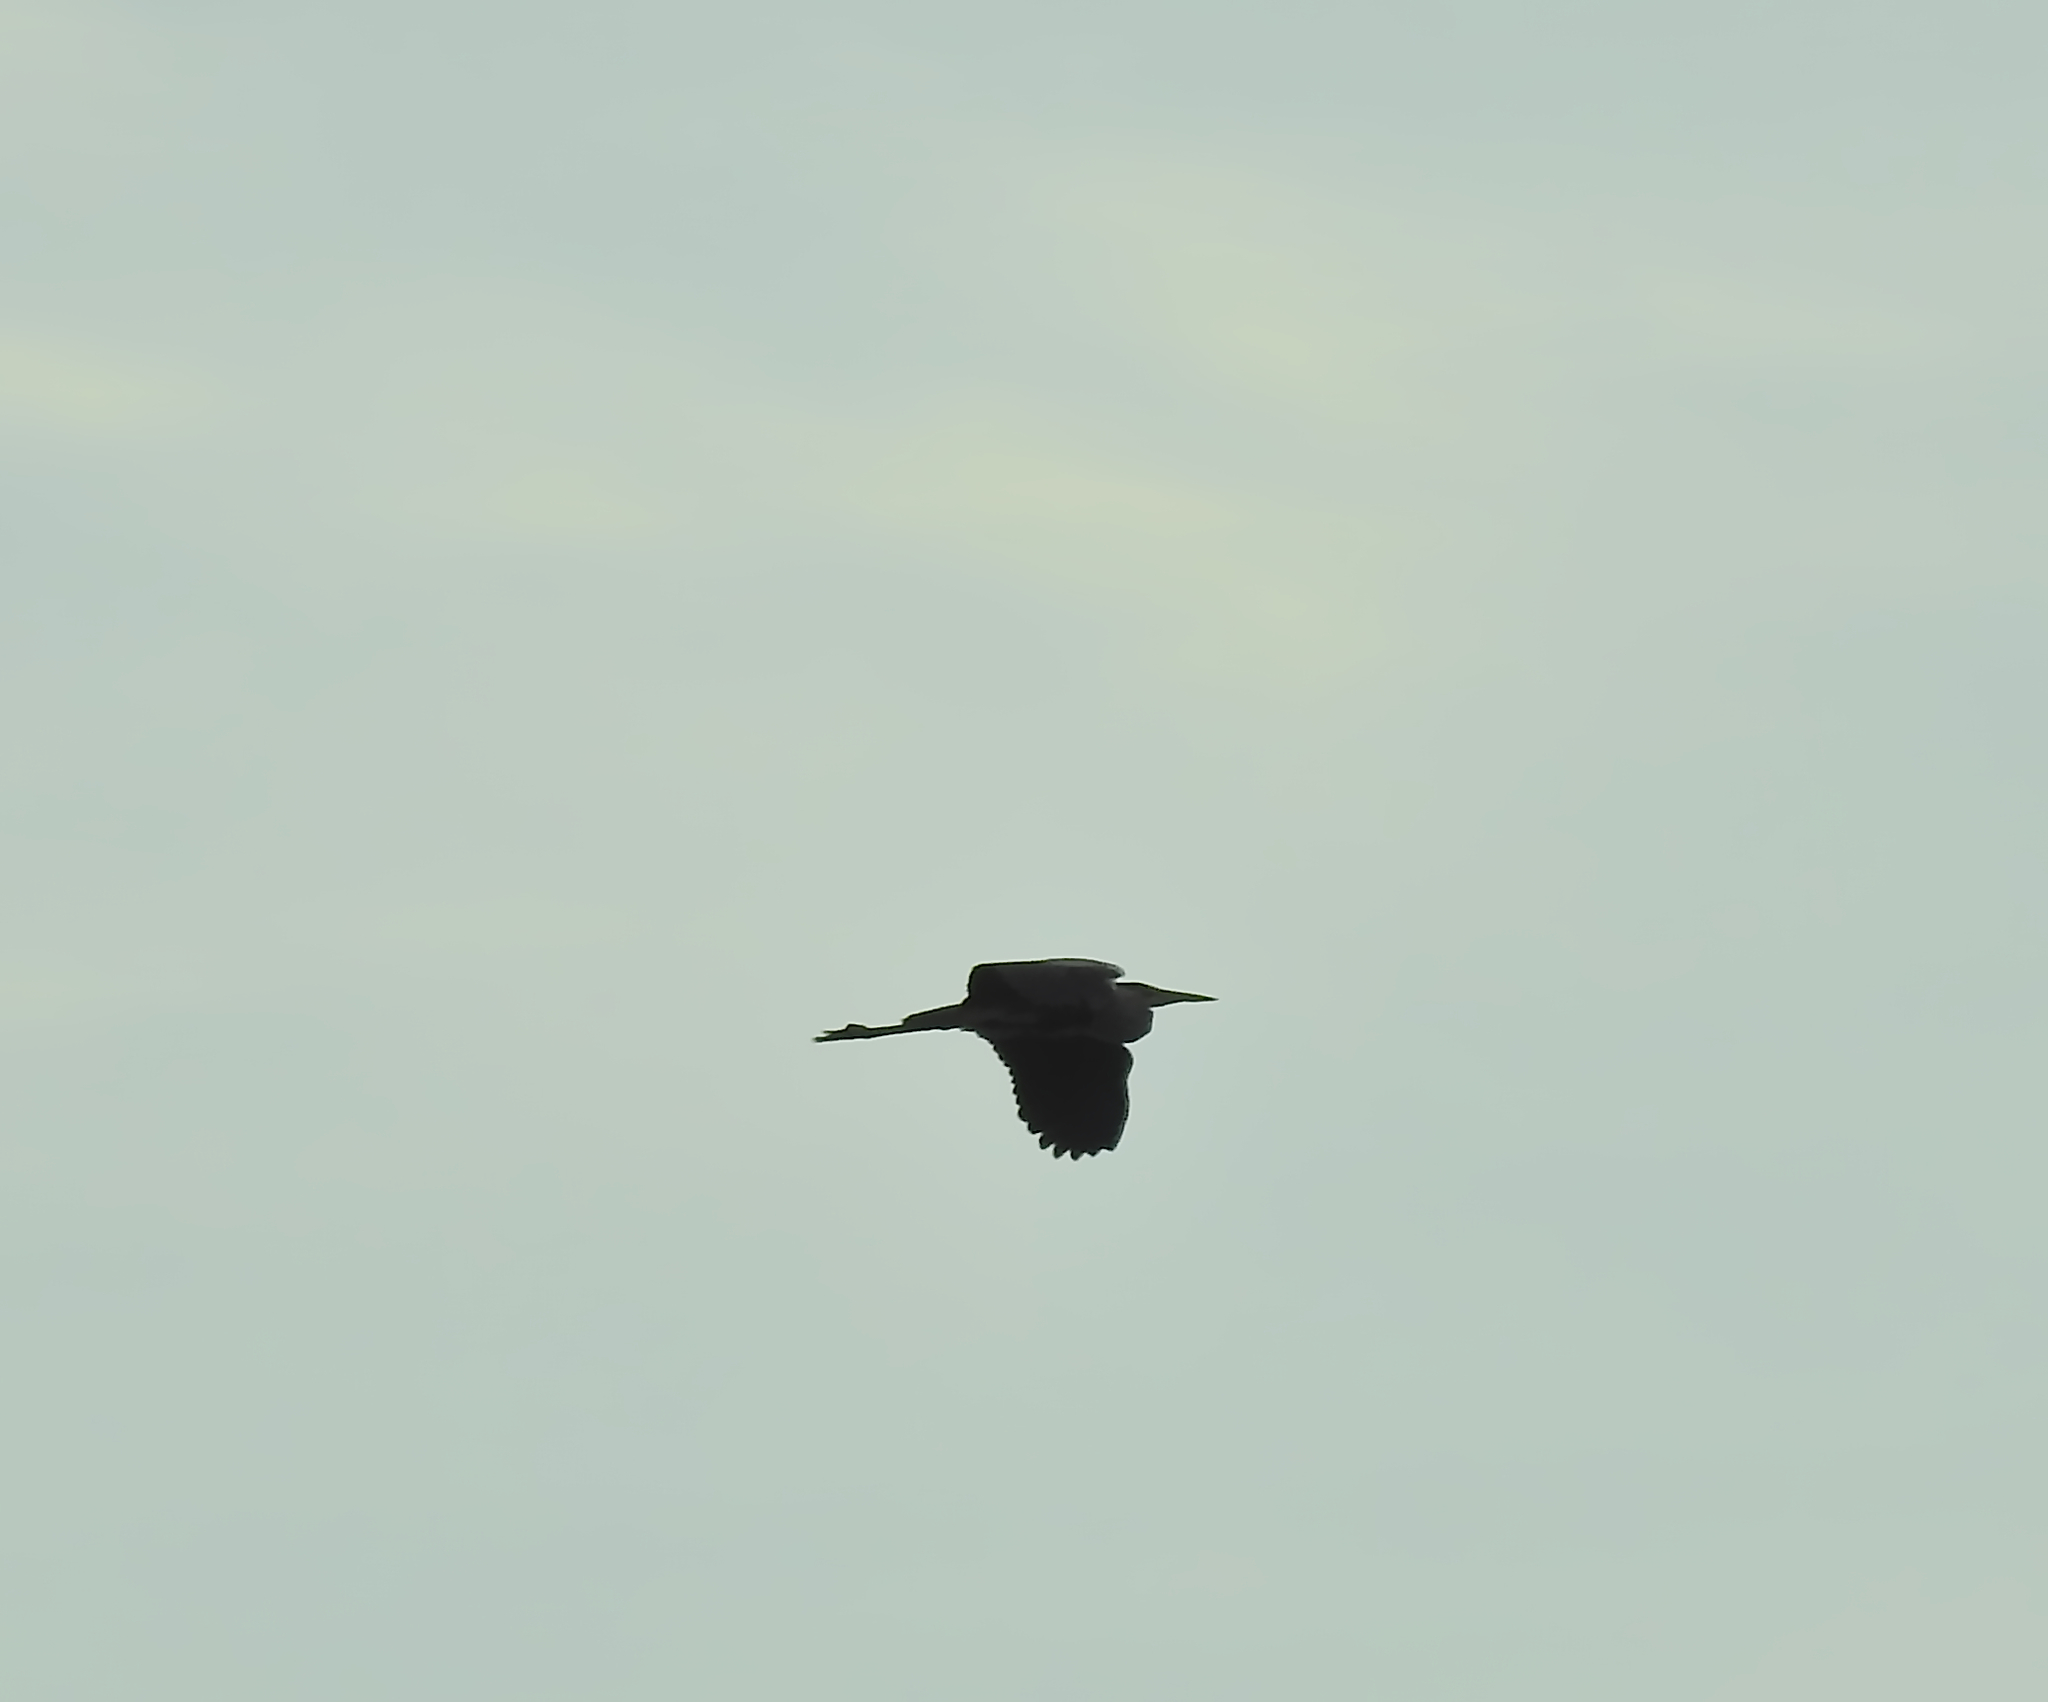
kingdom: Animalia
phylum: Chordata
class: Aves
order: Pelecaniformes
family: Ardeidae
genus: Ardea
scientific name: Ardea cinerea
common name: Grey heron
